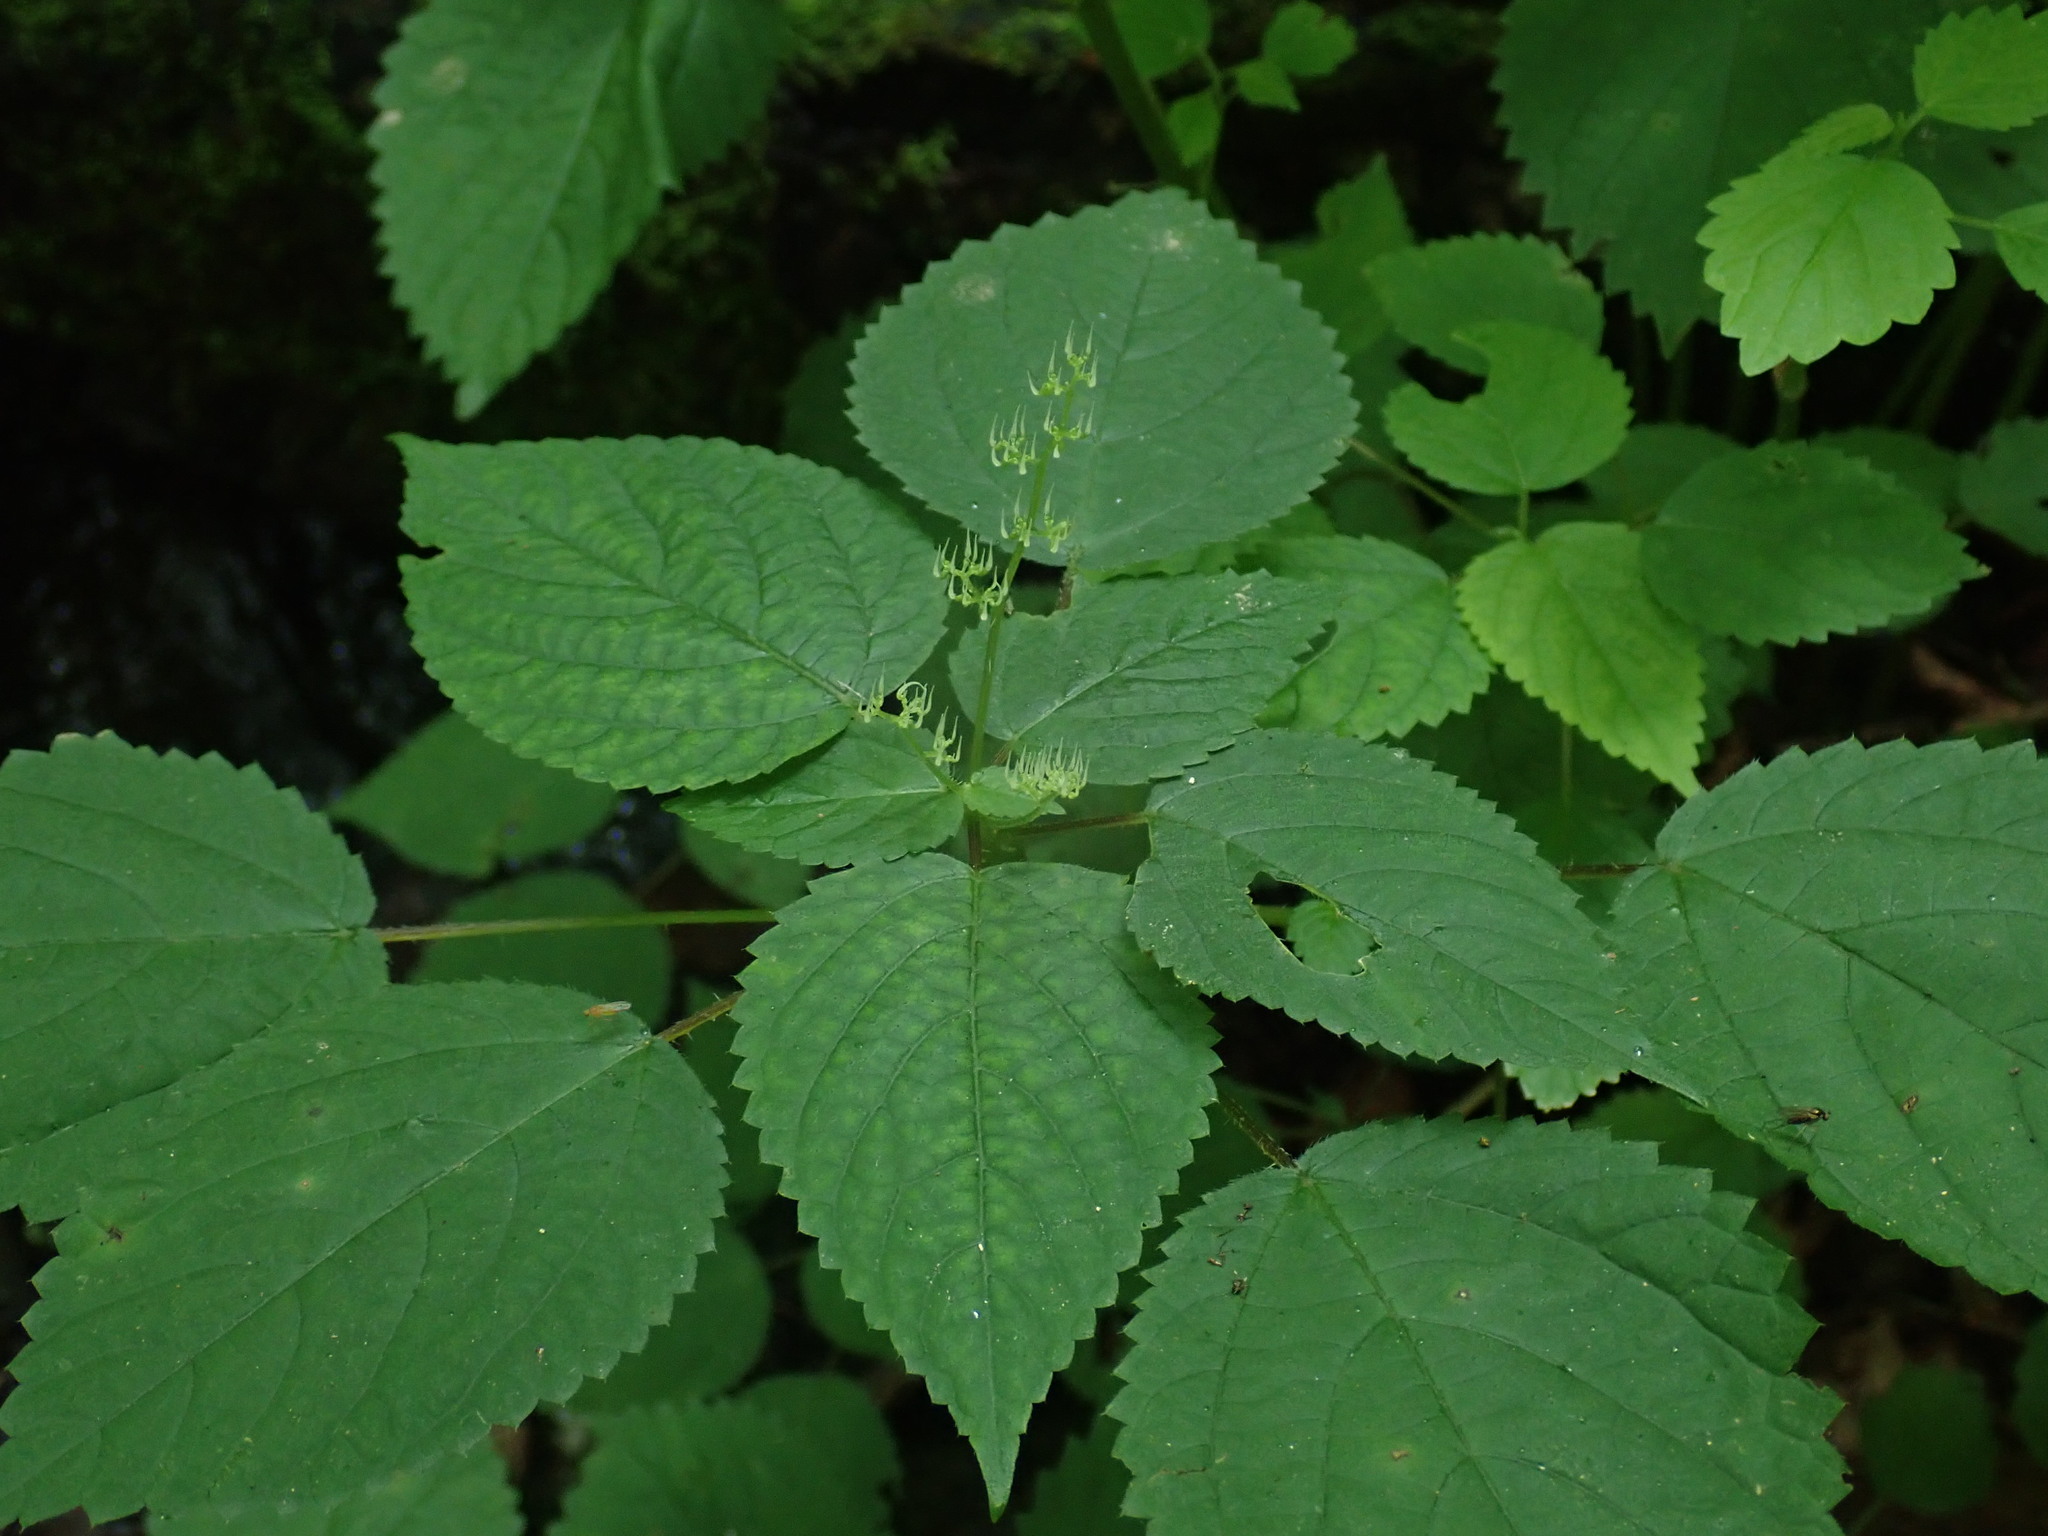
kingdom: Plantae
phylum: Tracheophyta
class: Magnoliopsida
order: Rosales
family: Urticaceae
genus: Laportea
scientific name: Laportea canadensis
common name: Canada nettle
